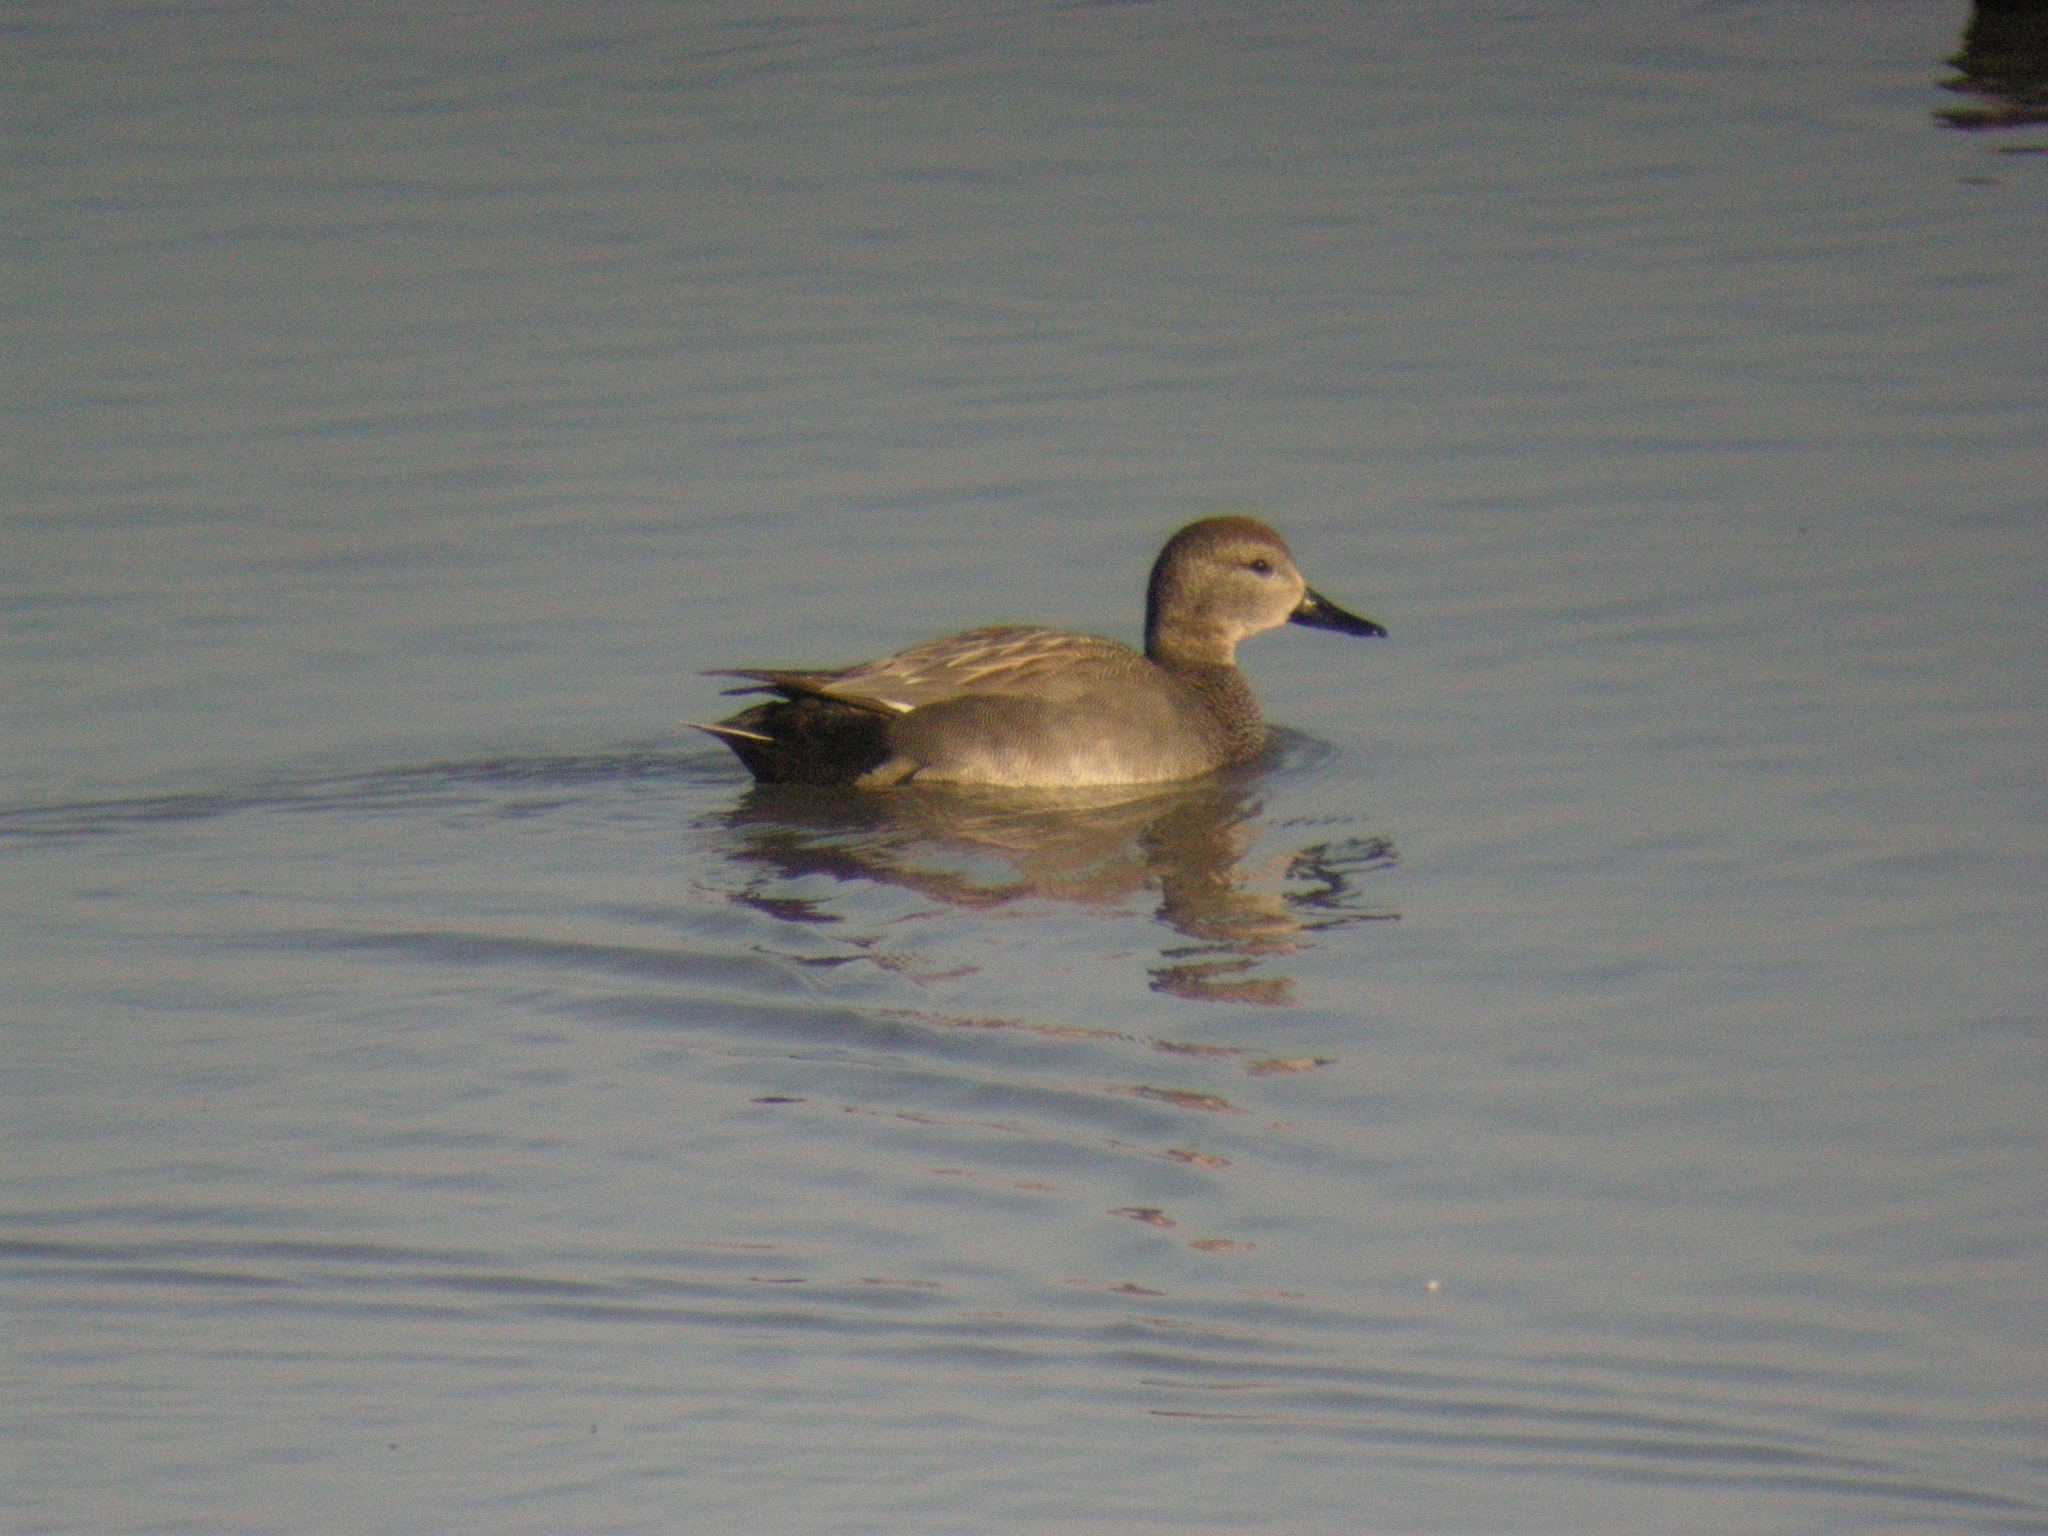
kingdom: Animalia
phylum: Chordata
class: Aves
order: Anseriformes
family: Anatidae
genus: Mareca
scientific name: Mareca strepera
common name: Gadwall
